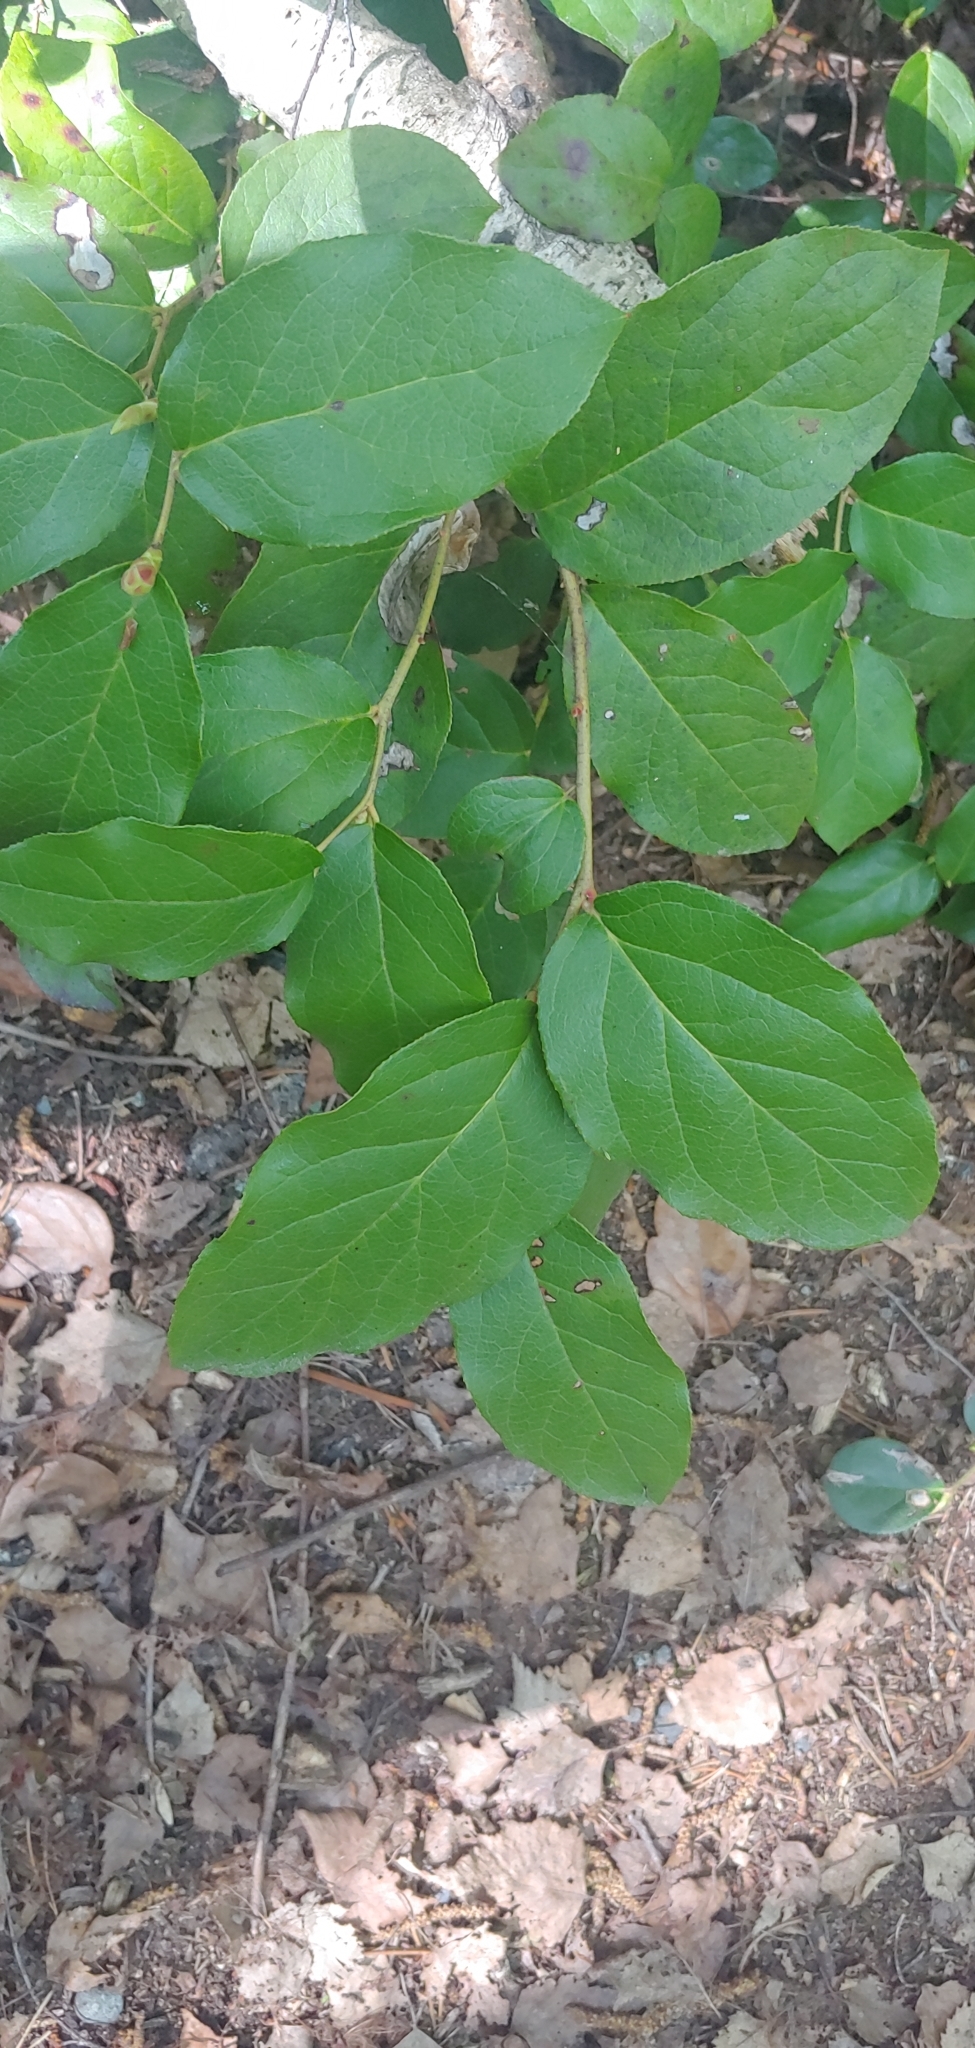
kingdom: Plantae
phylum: Tracheophyta
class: Magnoliopsida
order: Ericales
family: Ericaceae
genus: Gaultheria
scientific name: Gaultheria shallon
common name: Shallon
